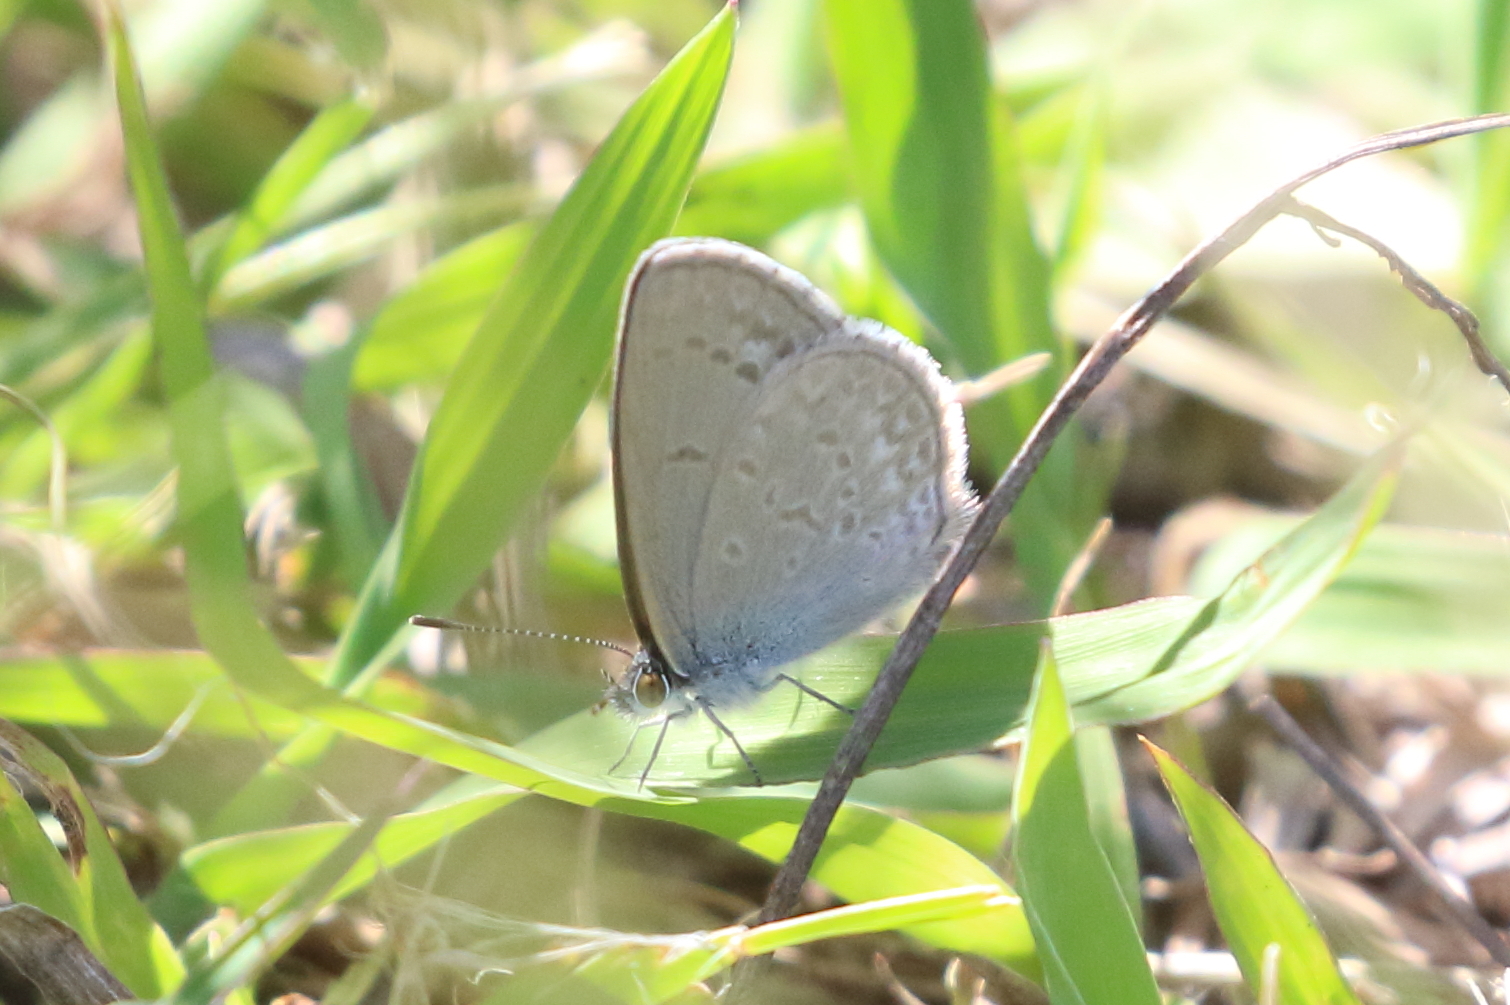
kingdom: Animalia
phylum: Arthropoda
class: Insecta
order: Lepidoptera
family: Lycaenidae
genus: Zizina
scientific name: Zizina labradus
